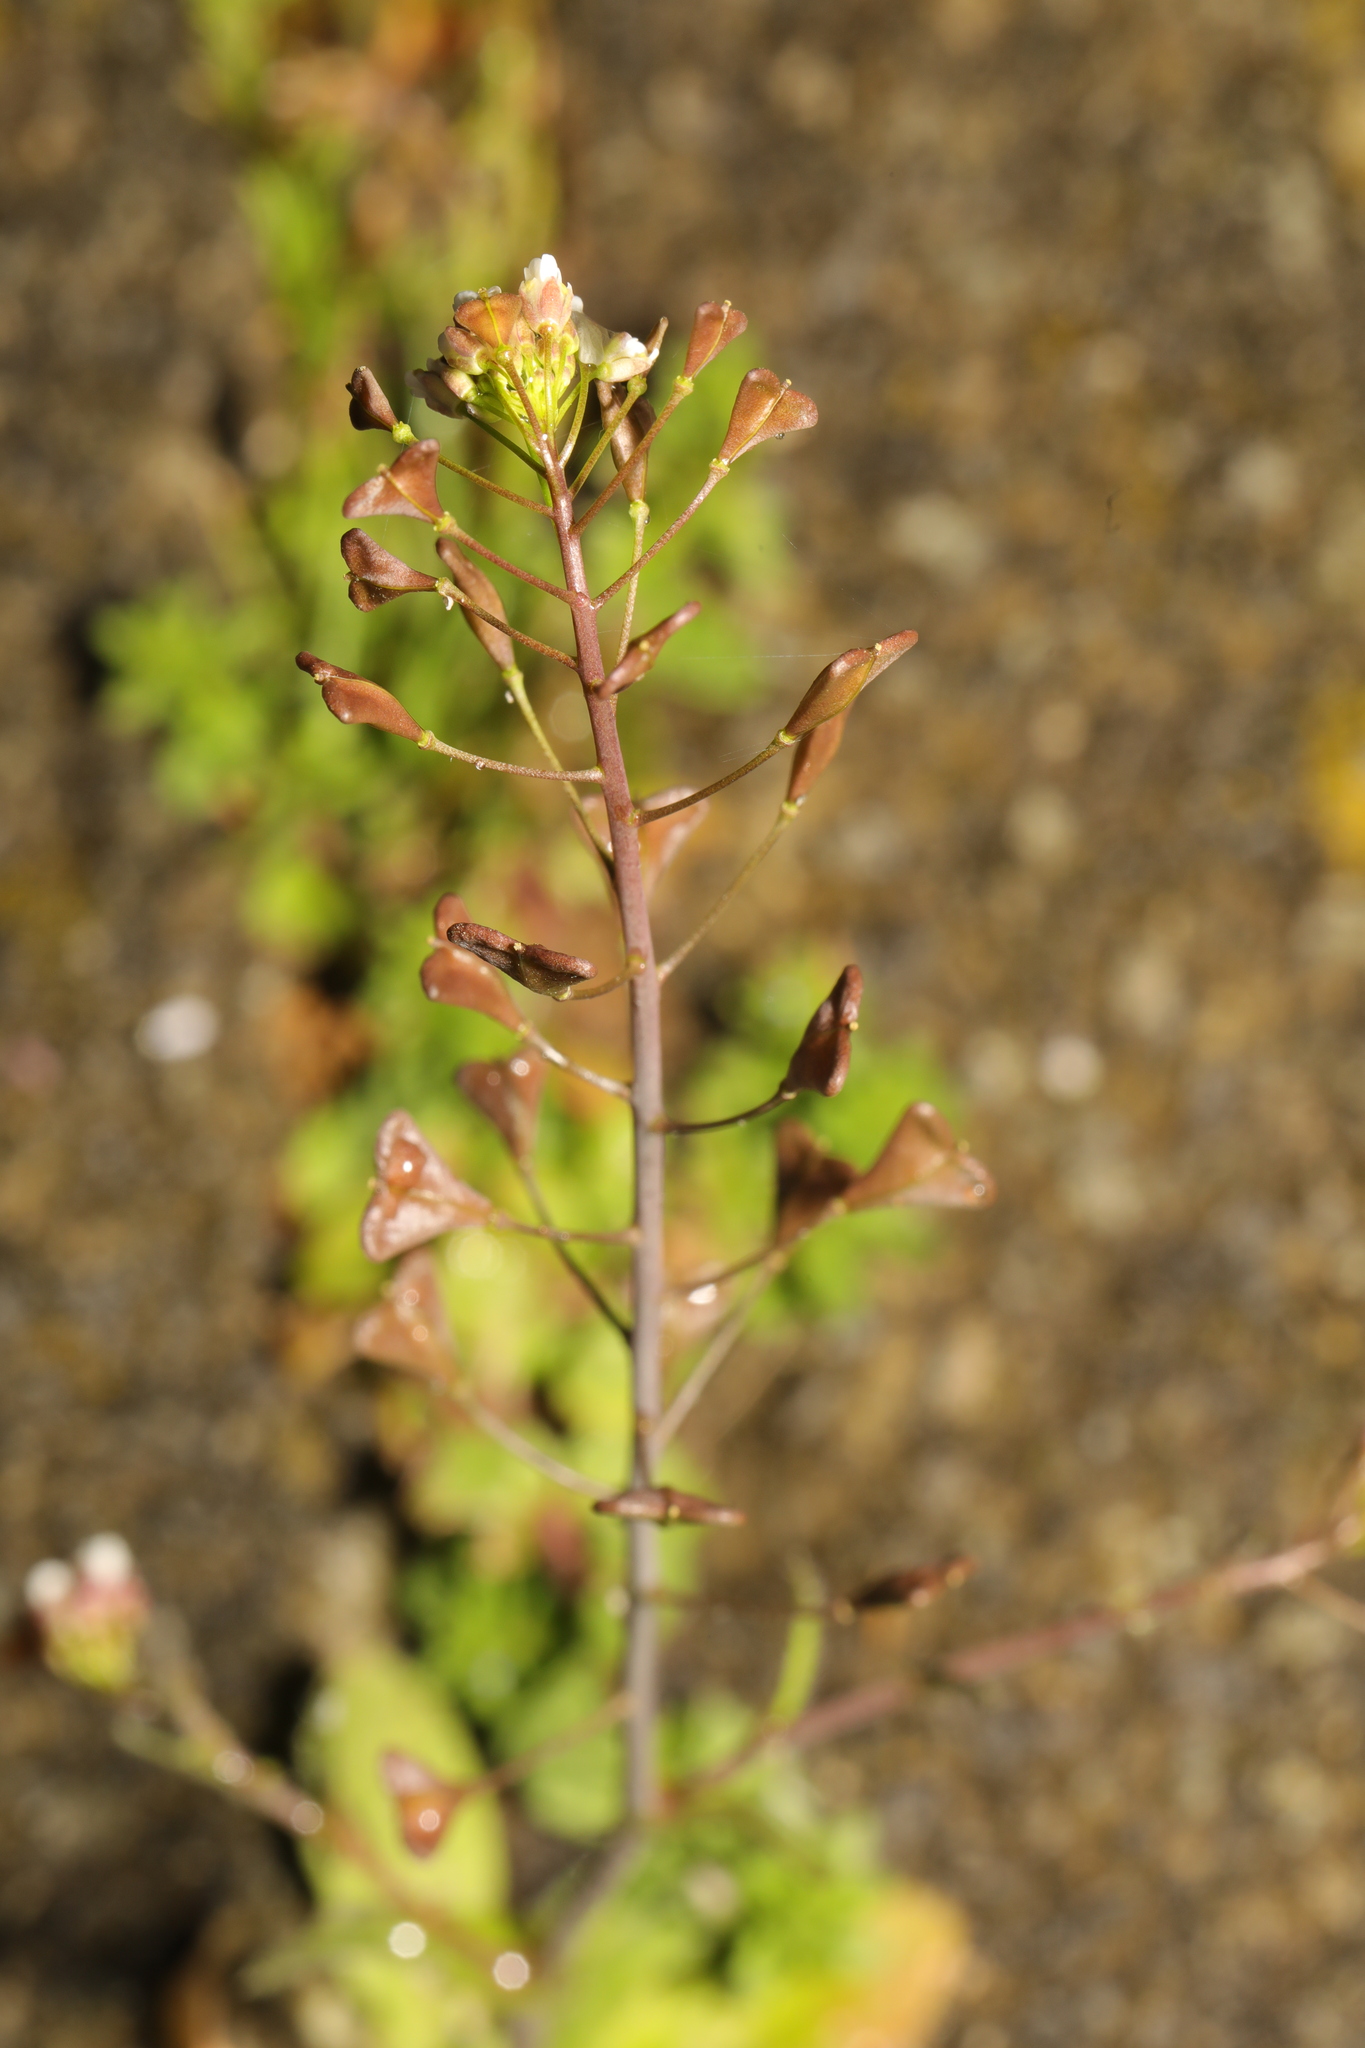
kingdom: Plantae
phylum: Tracheophyta
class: Magnoliopsida
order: Brassicales
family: Brassicaceae
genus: Capsella
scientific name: Capsella bursa-pastoris
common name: Shepherd's purse
